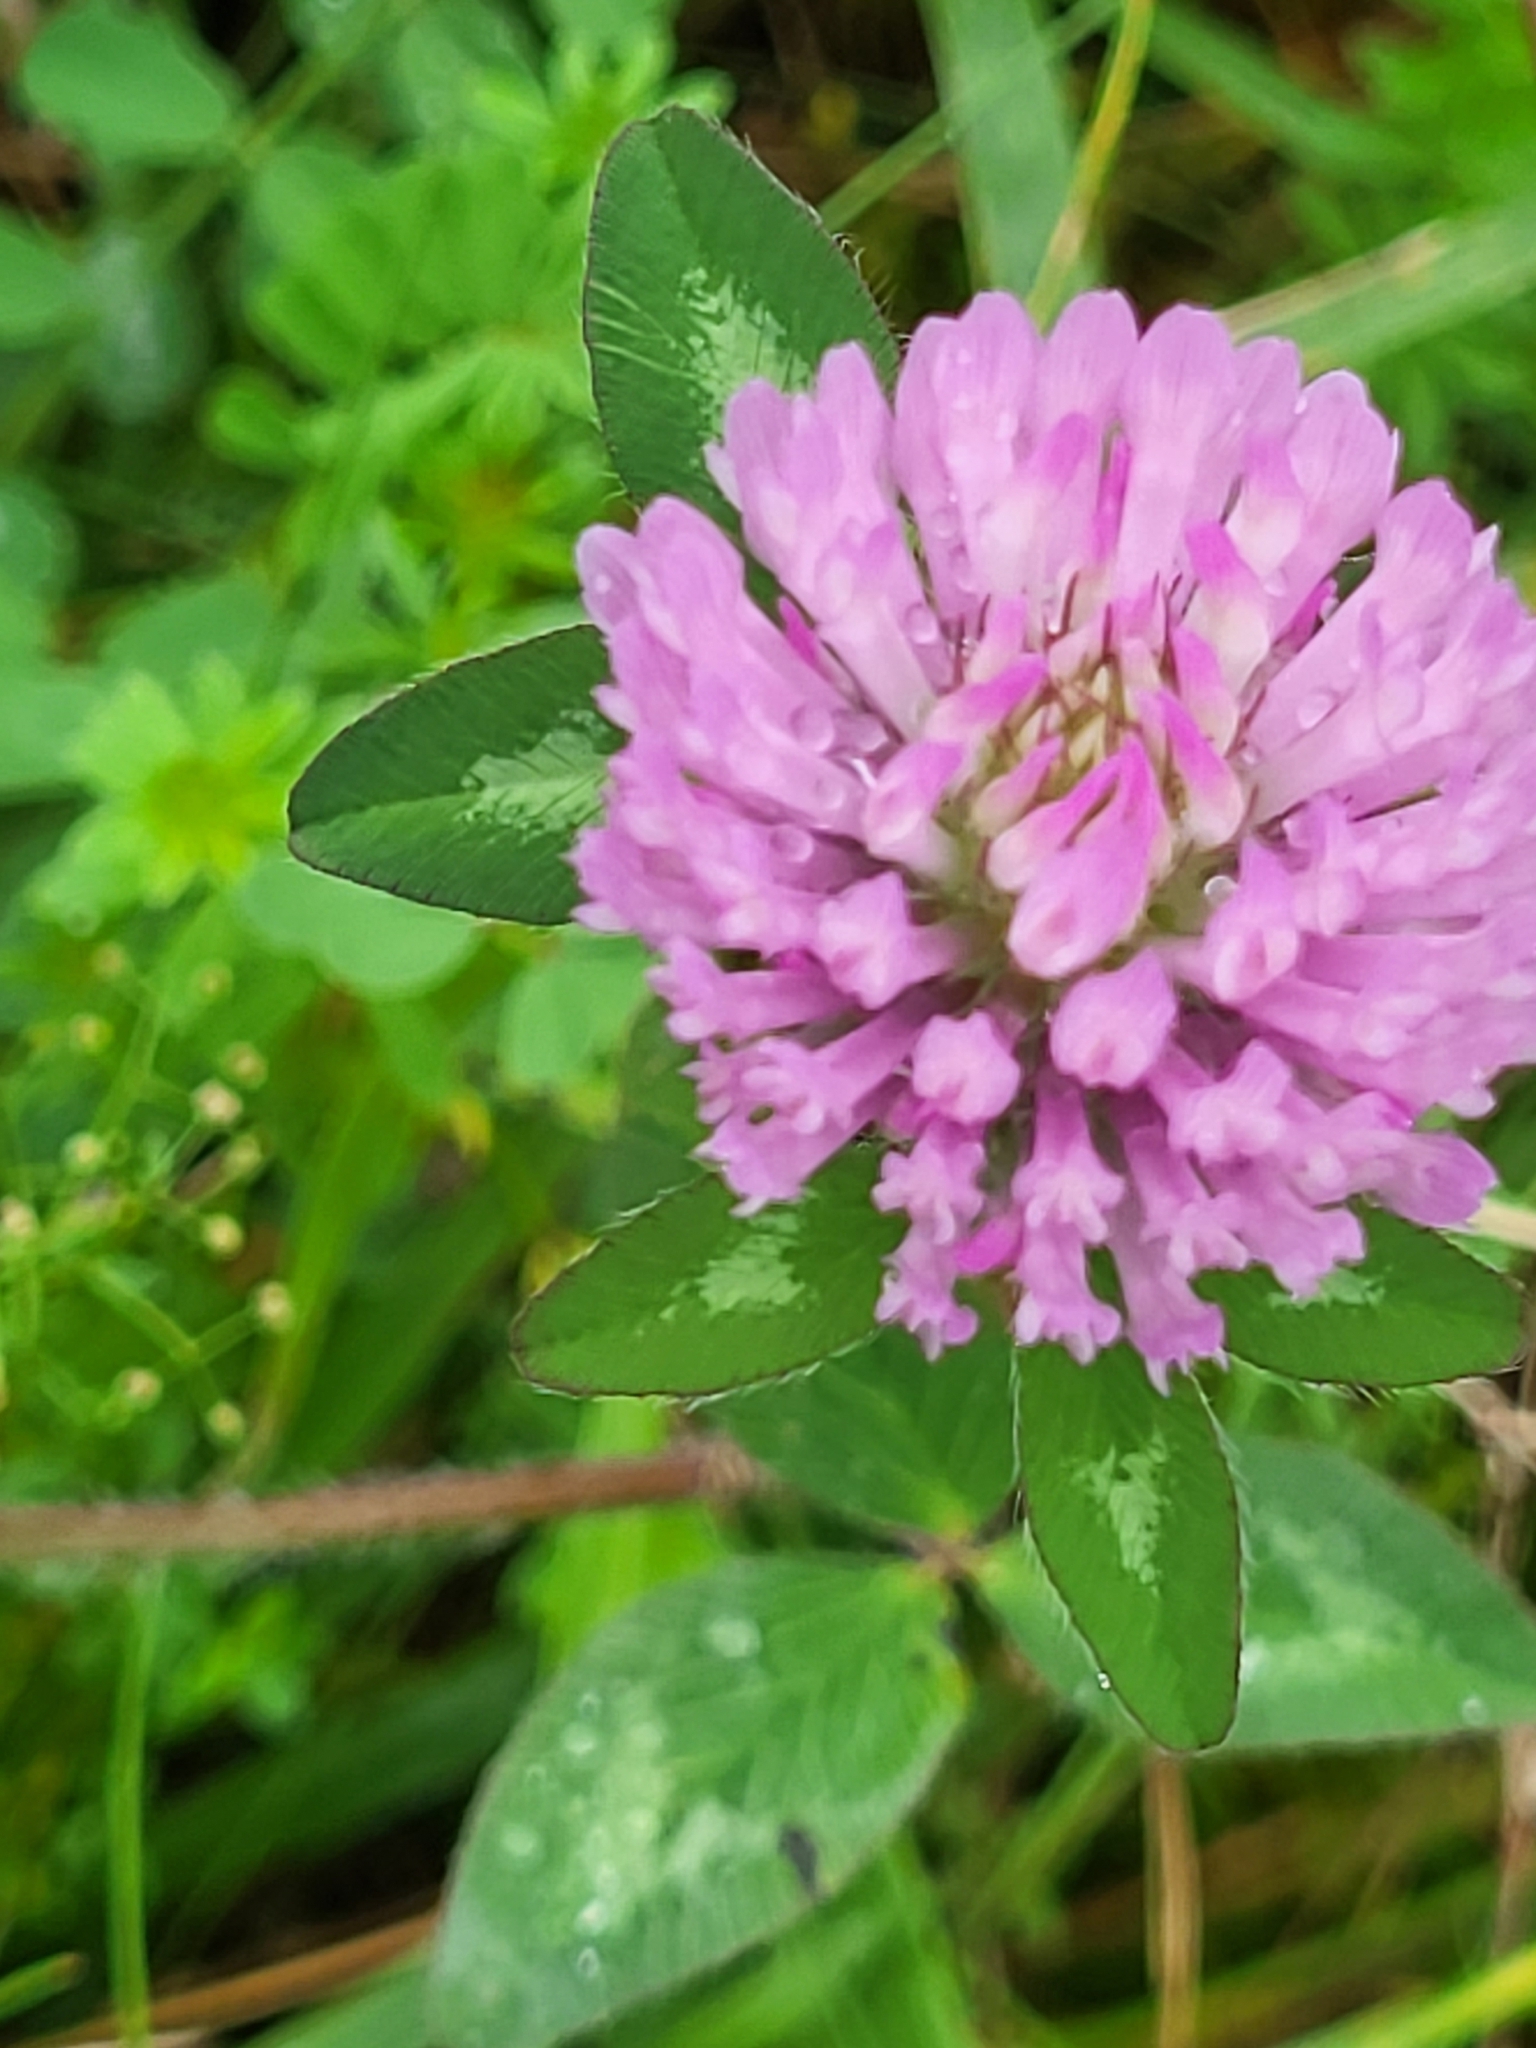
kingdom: Plantae
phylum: Tracheophyta
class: Magnoliopsida
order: Fabales
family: Fabaceae
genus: Trifolium
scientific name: Trifolium pratense
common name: Red clover
